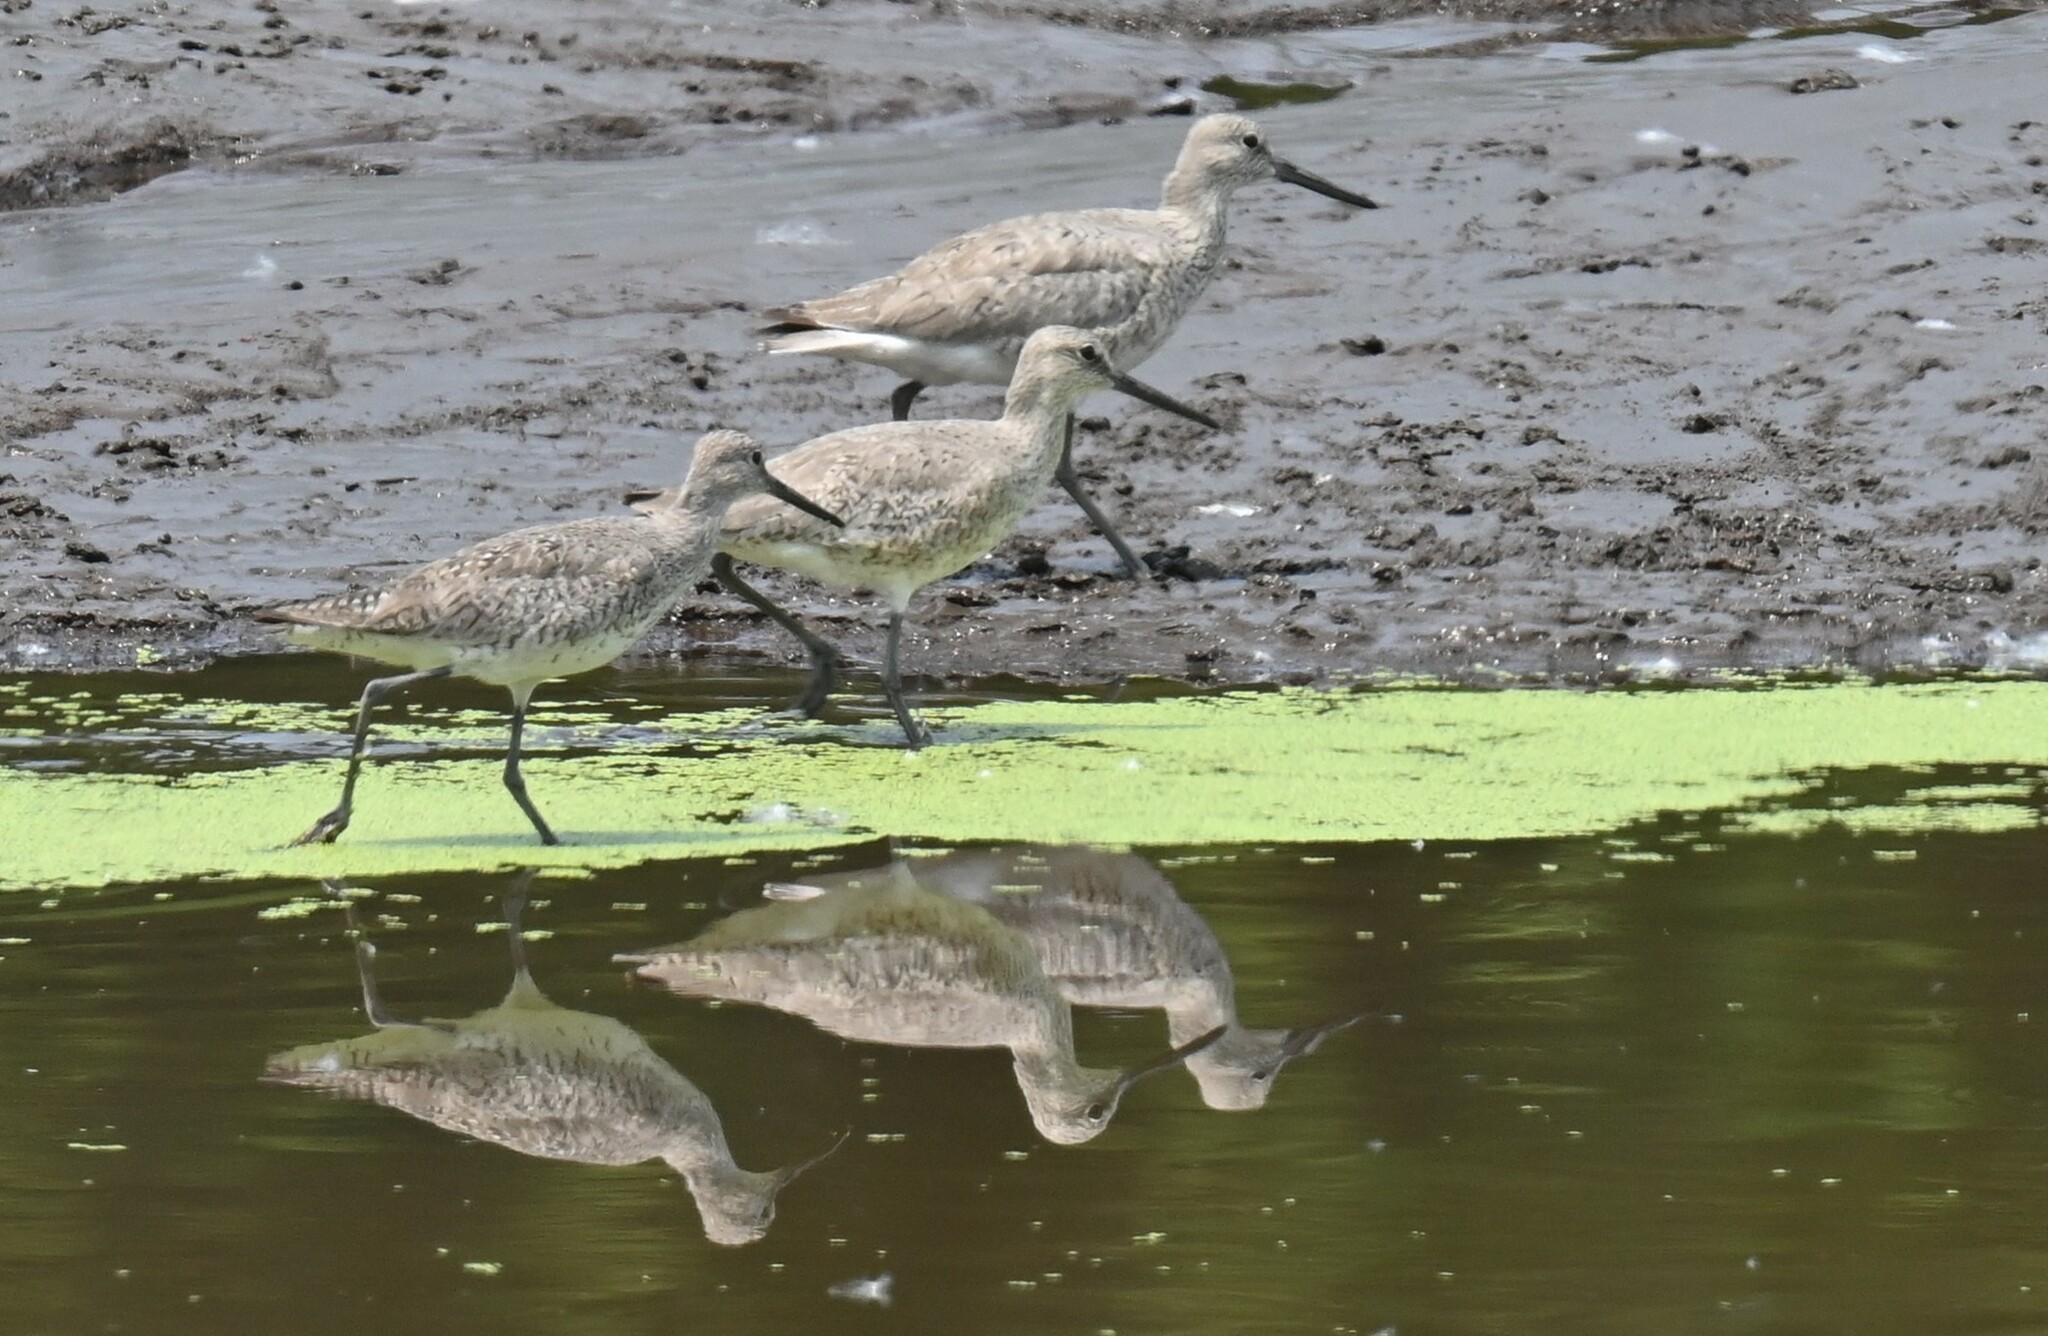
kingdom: Animalia
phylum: Chordata
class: Aves
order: Charadriiformes
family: Scolopacidae
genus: Tringa
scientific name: Tringa semipalmata
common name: Willet
